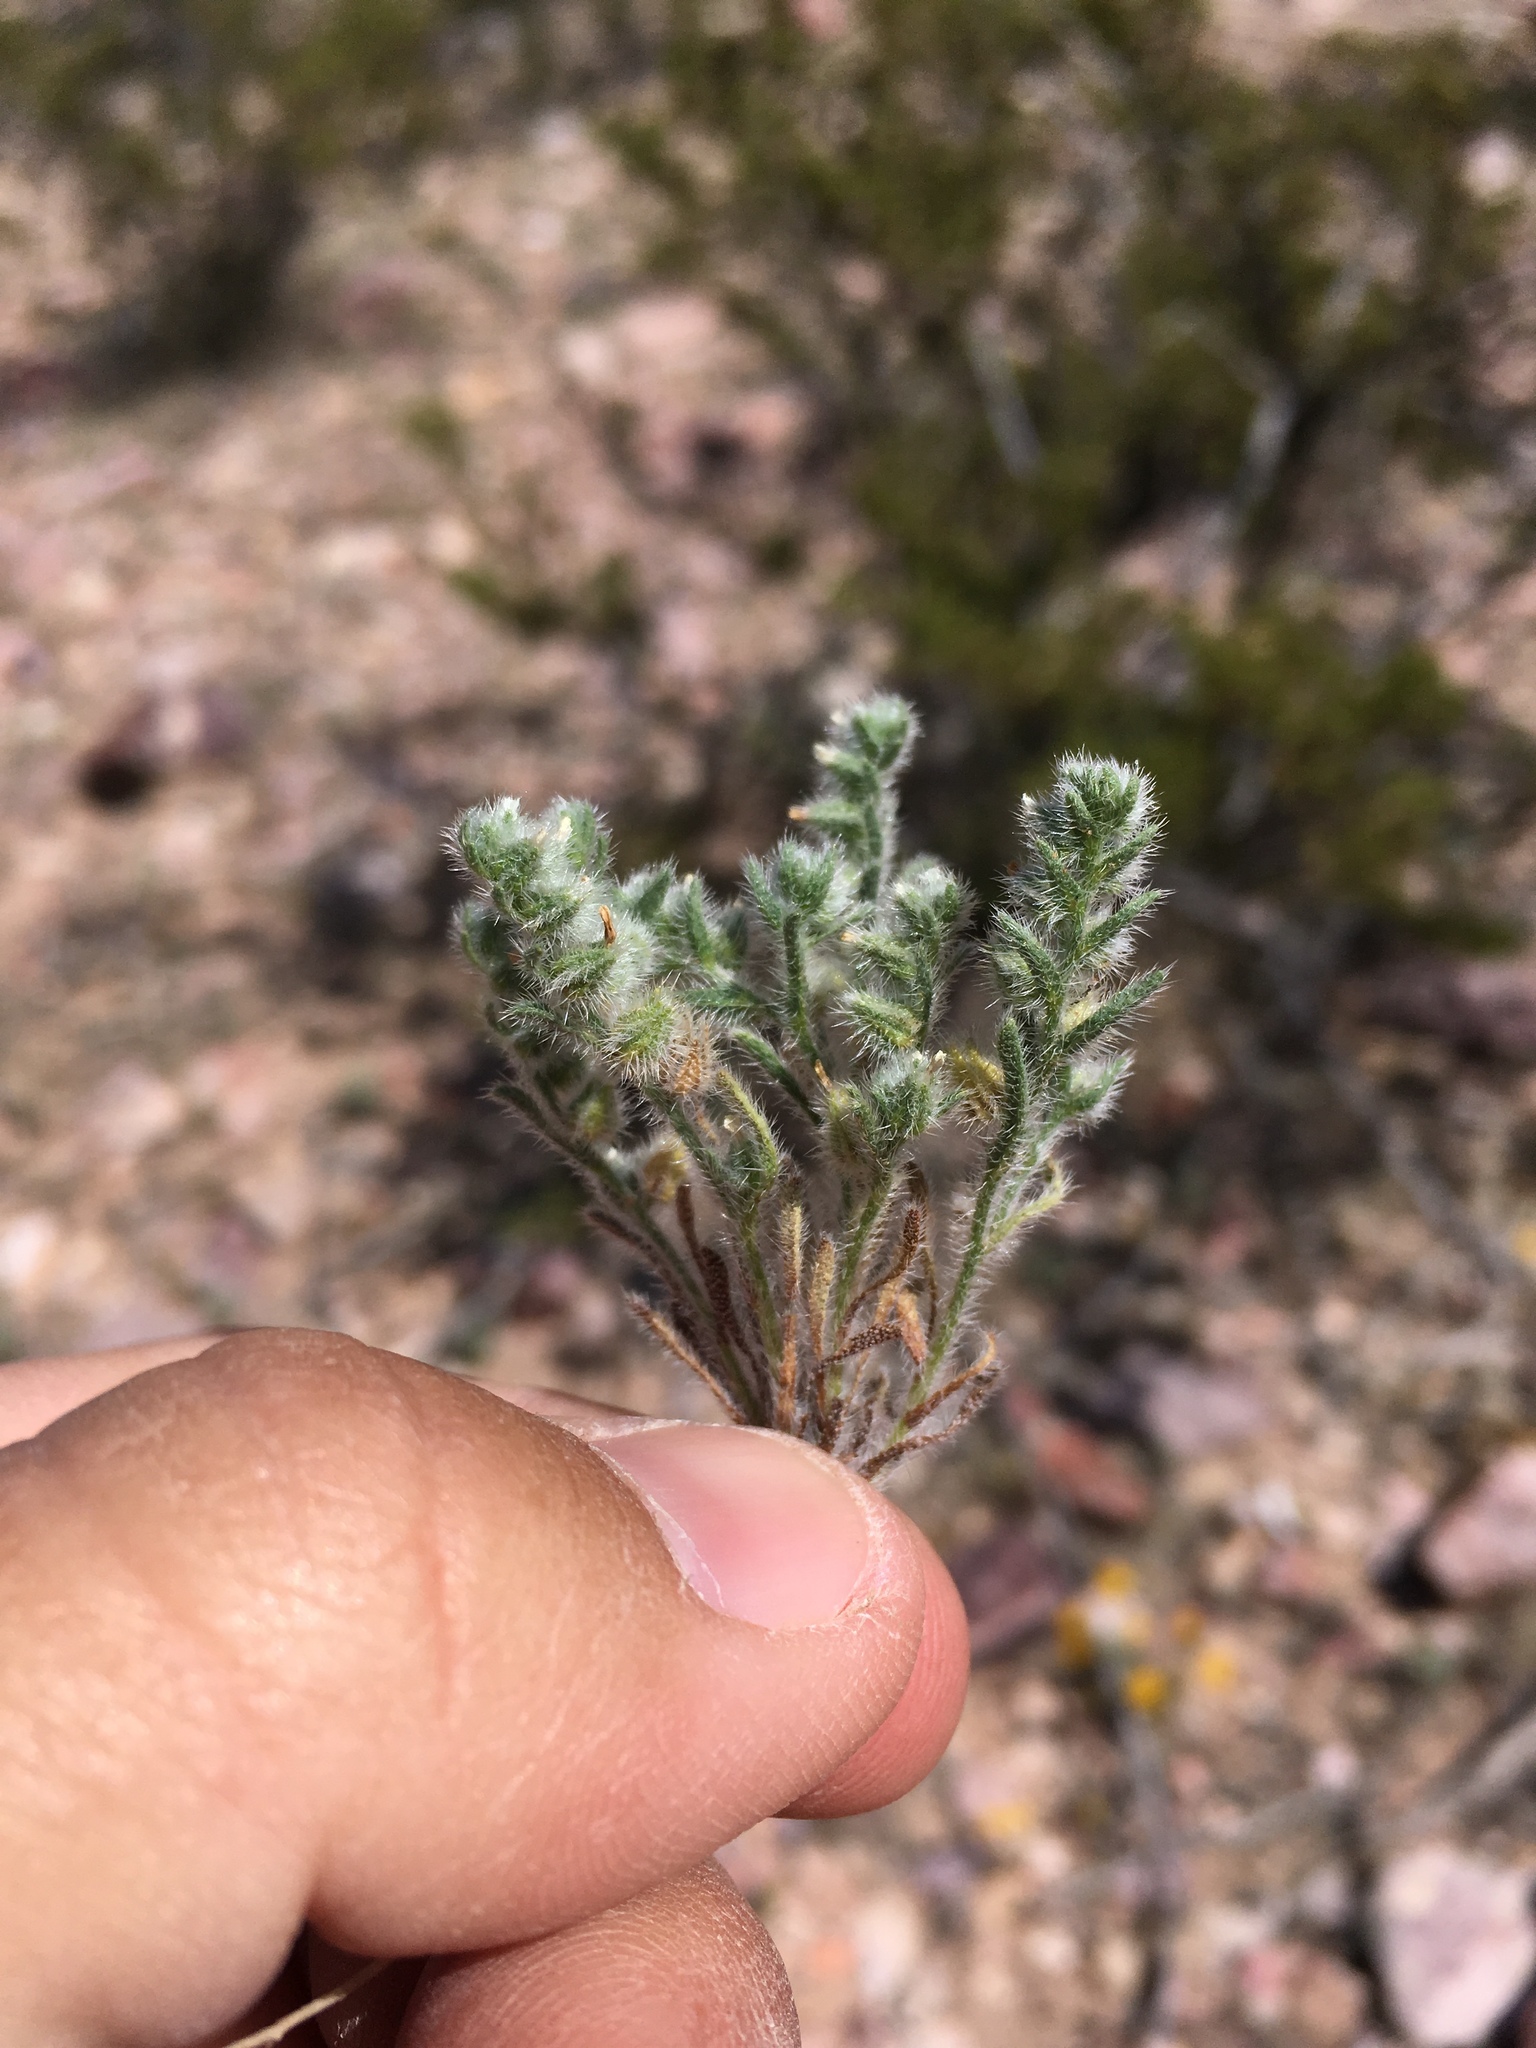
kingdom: Plantae
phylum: Tracheophyta
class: Magnoliopsida
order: Boraginales
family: Boraginaceae
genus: Cryptantha
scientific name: Cryptantha minima
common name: Little cat's-eye
